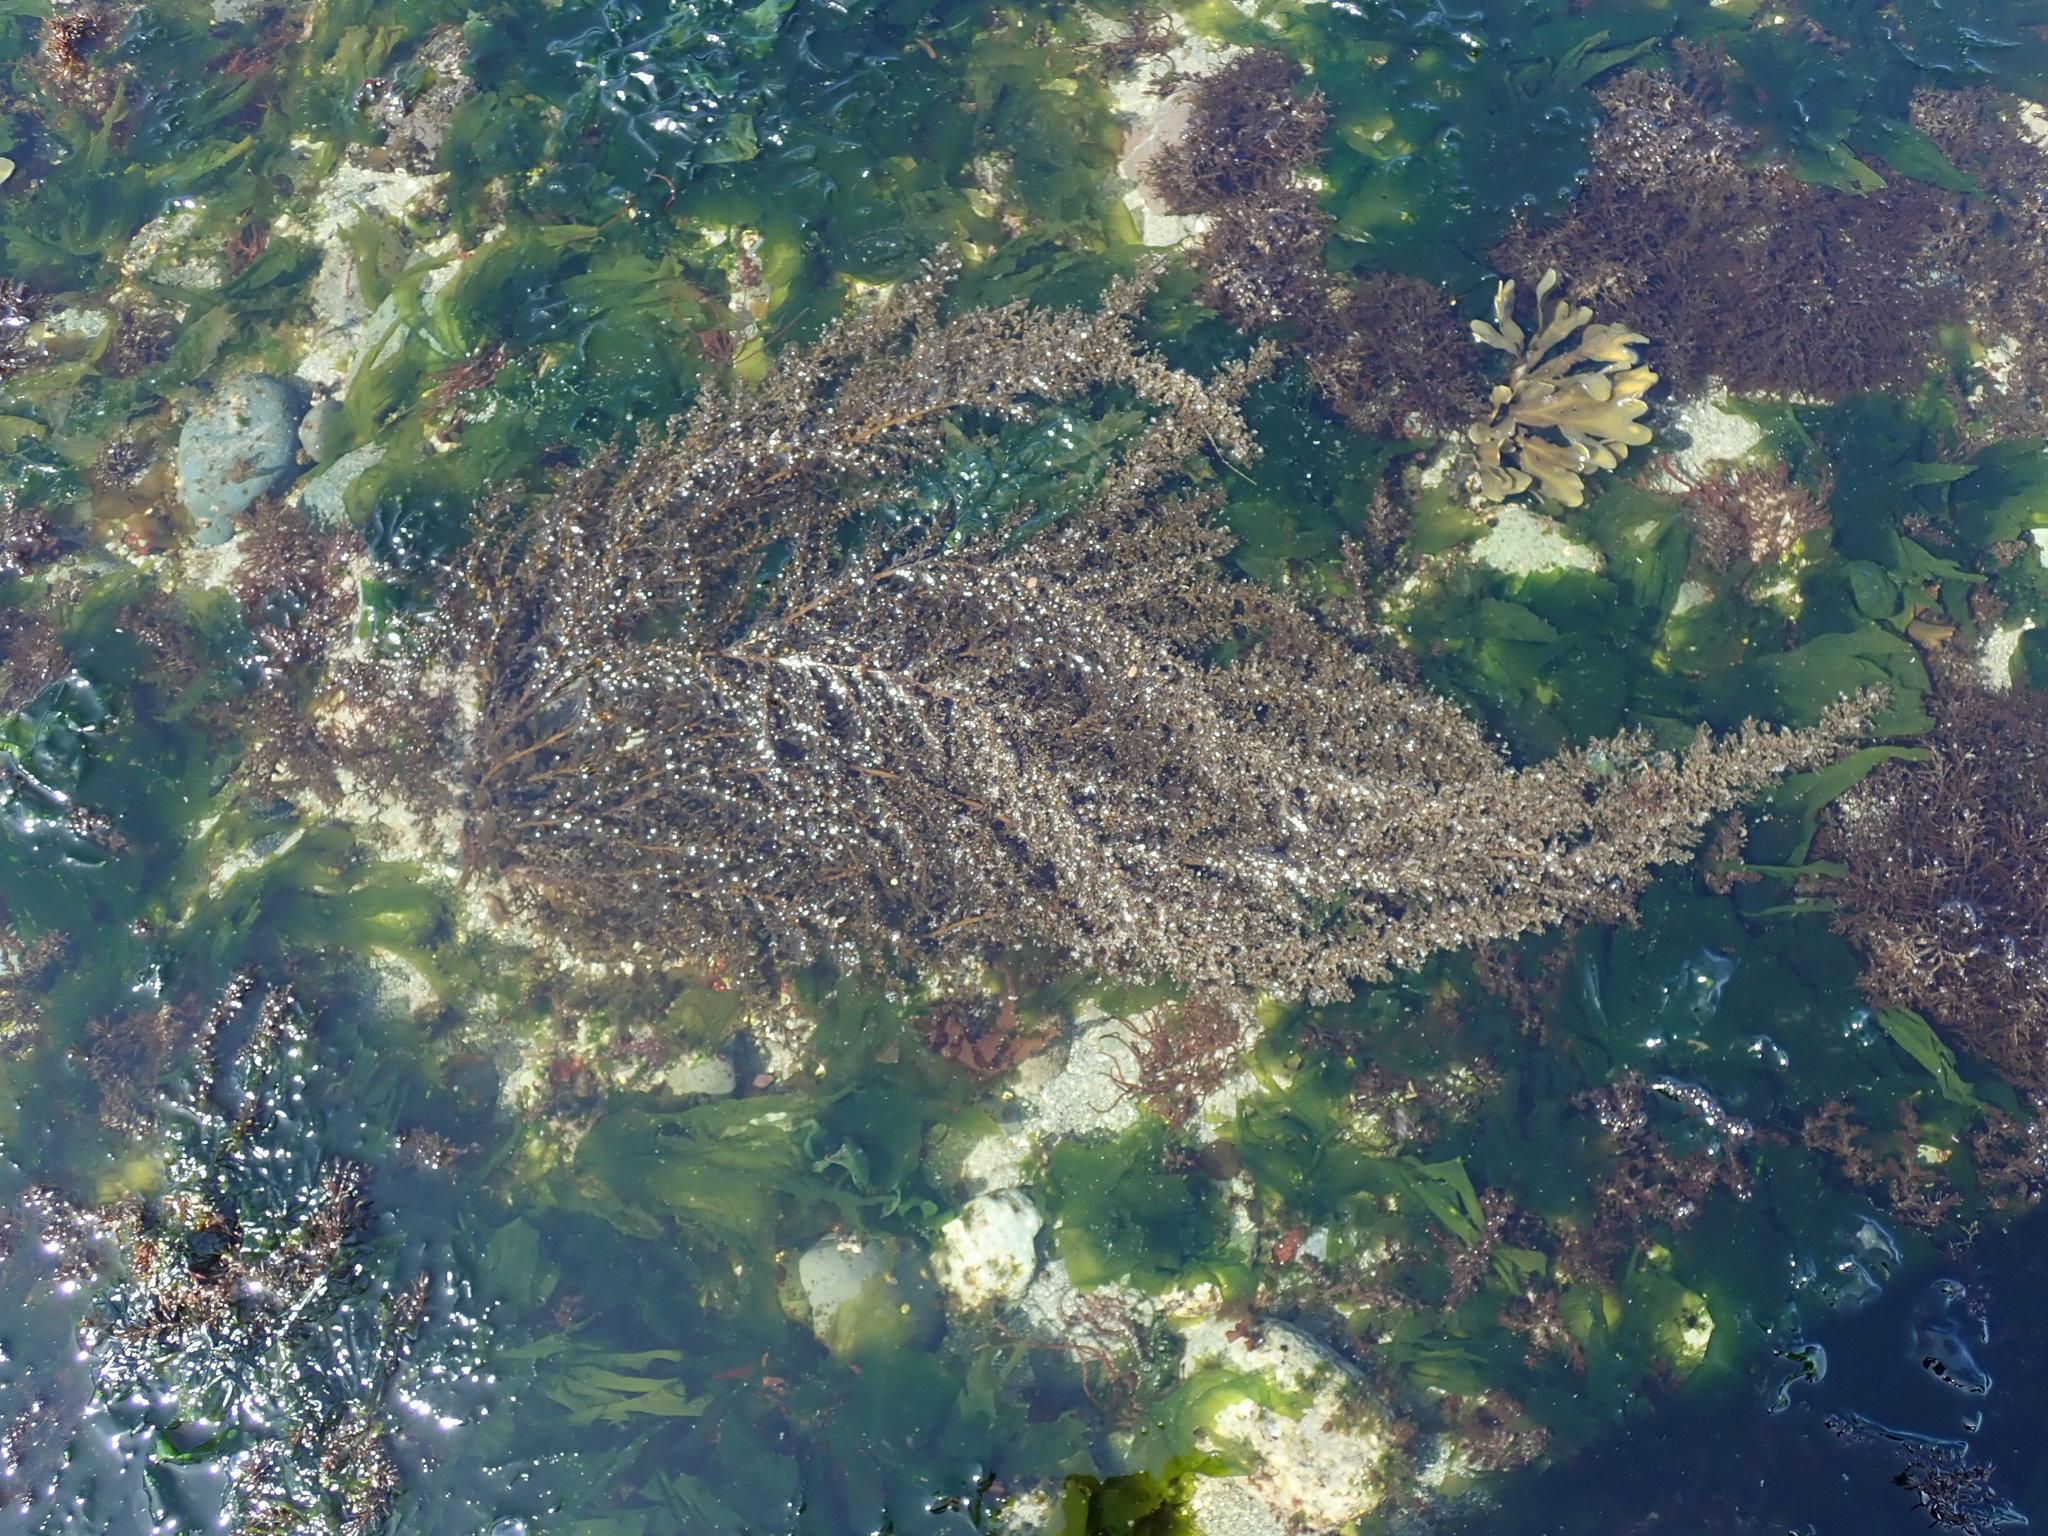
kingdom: Chromista
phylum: Ochrophyta
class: Phaeophyceae
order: Fucales
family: Sargassaceae
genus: Sargassum
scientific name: Sargassum muticum
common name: Japweed
